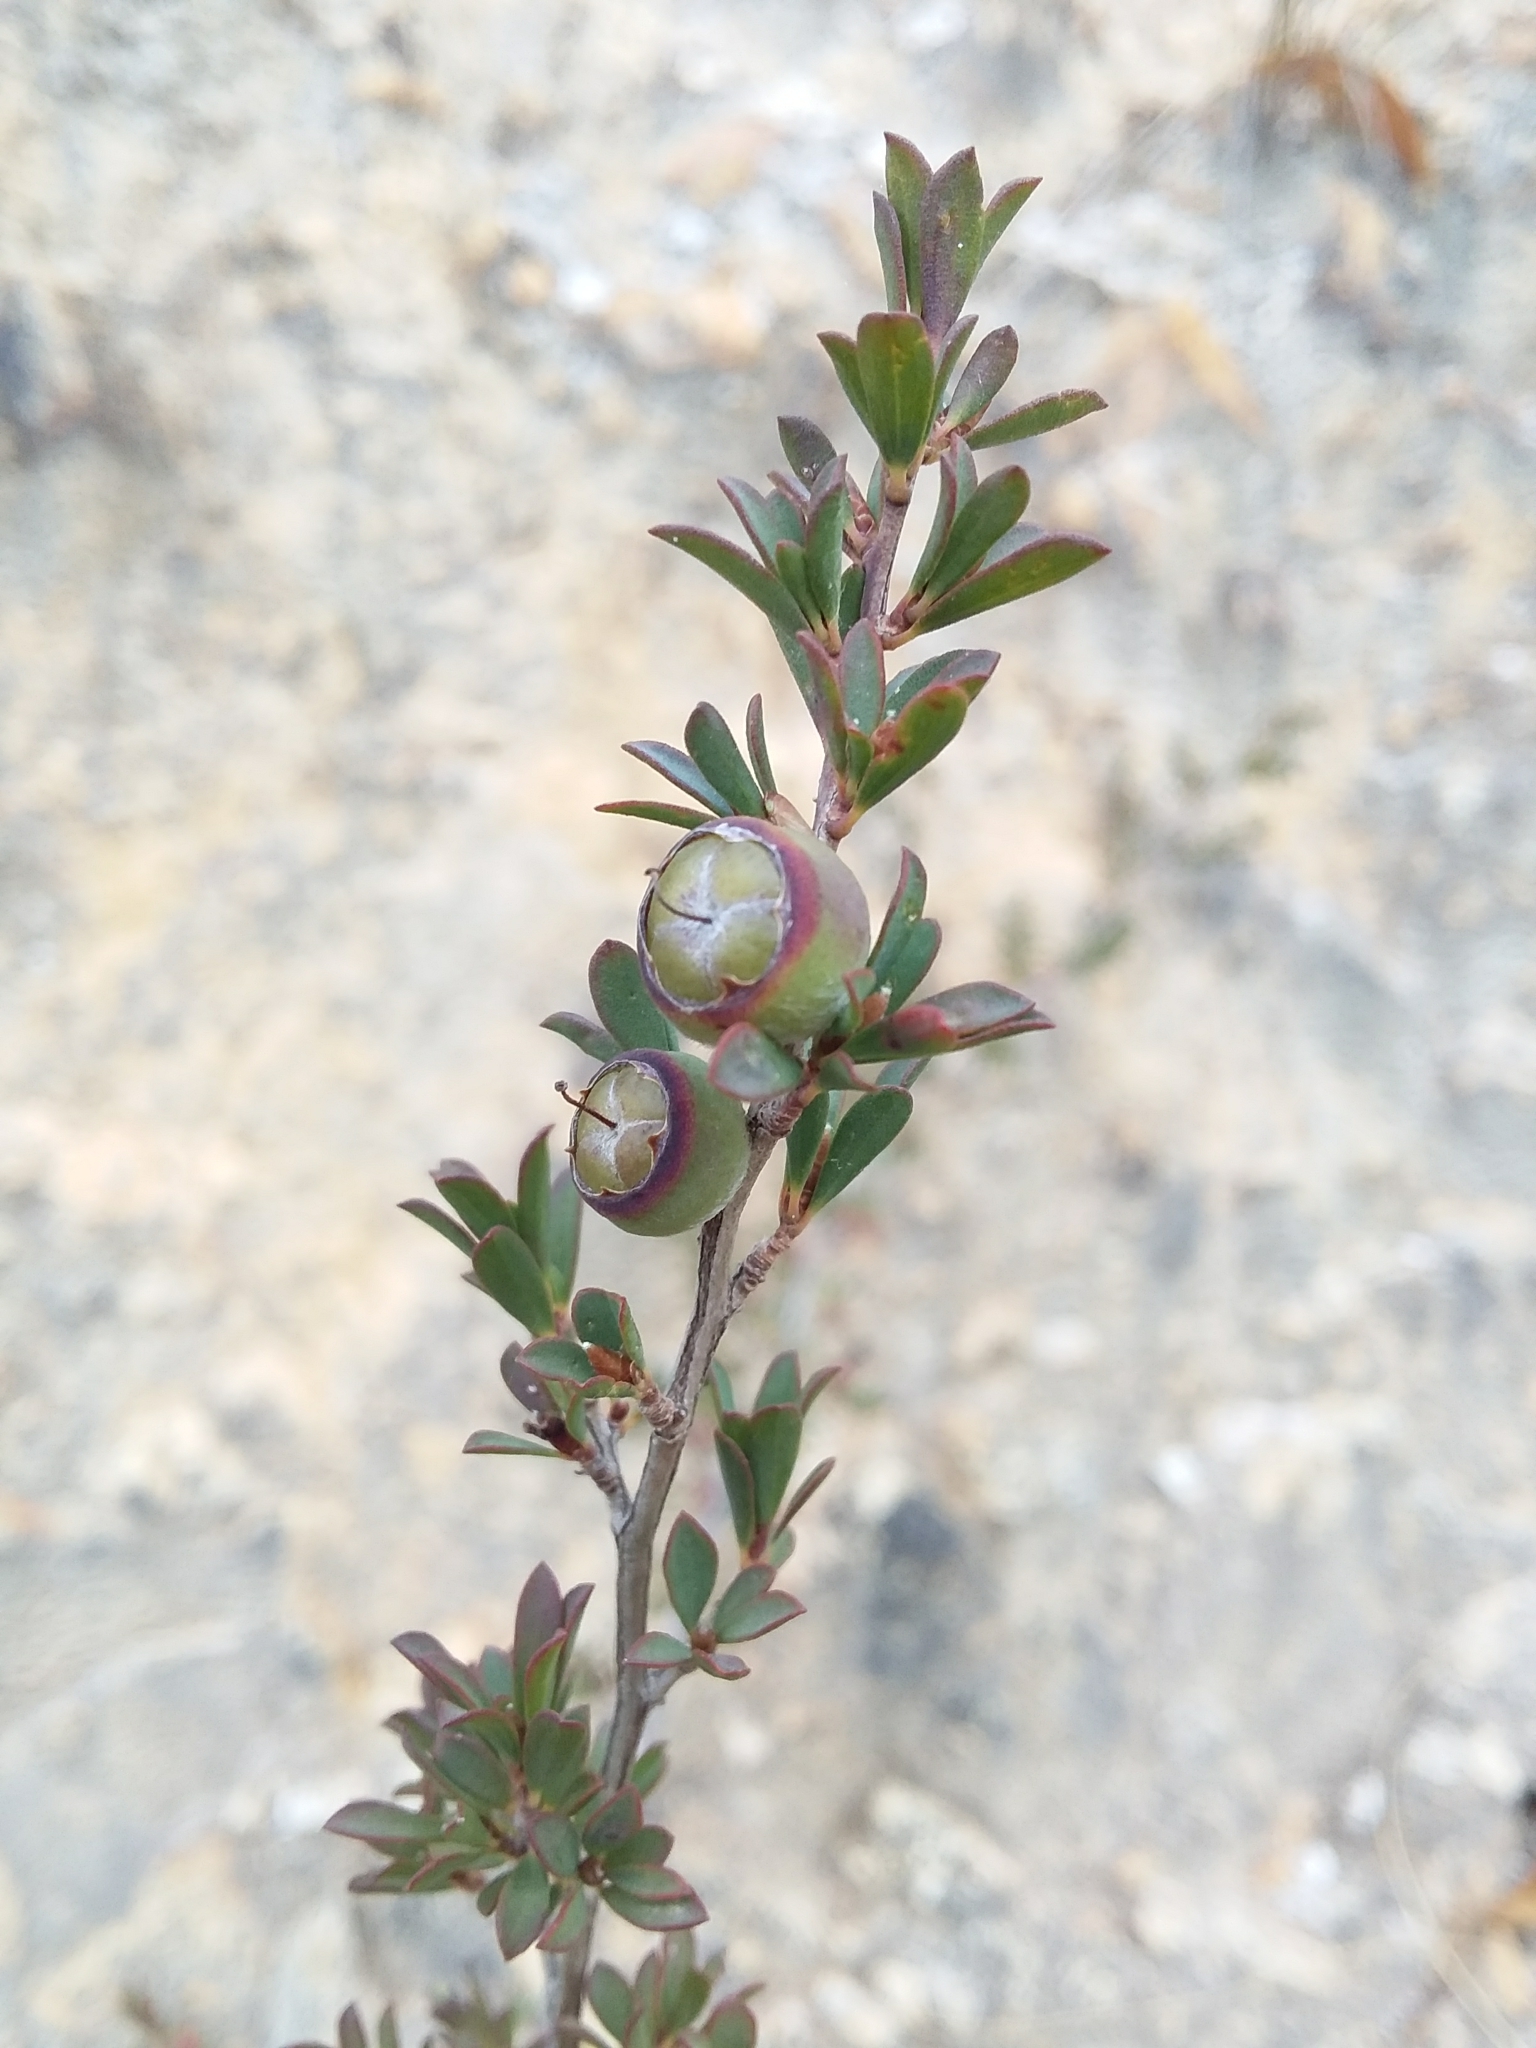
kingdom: Plantae
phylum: Tracheophyta
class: Magnoliopsida
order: Myrtales
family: Myrtaceae
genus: Leptospermum
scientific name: Leptospermum myrsinoides
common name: Heath teatree
